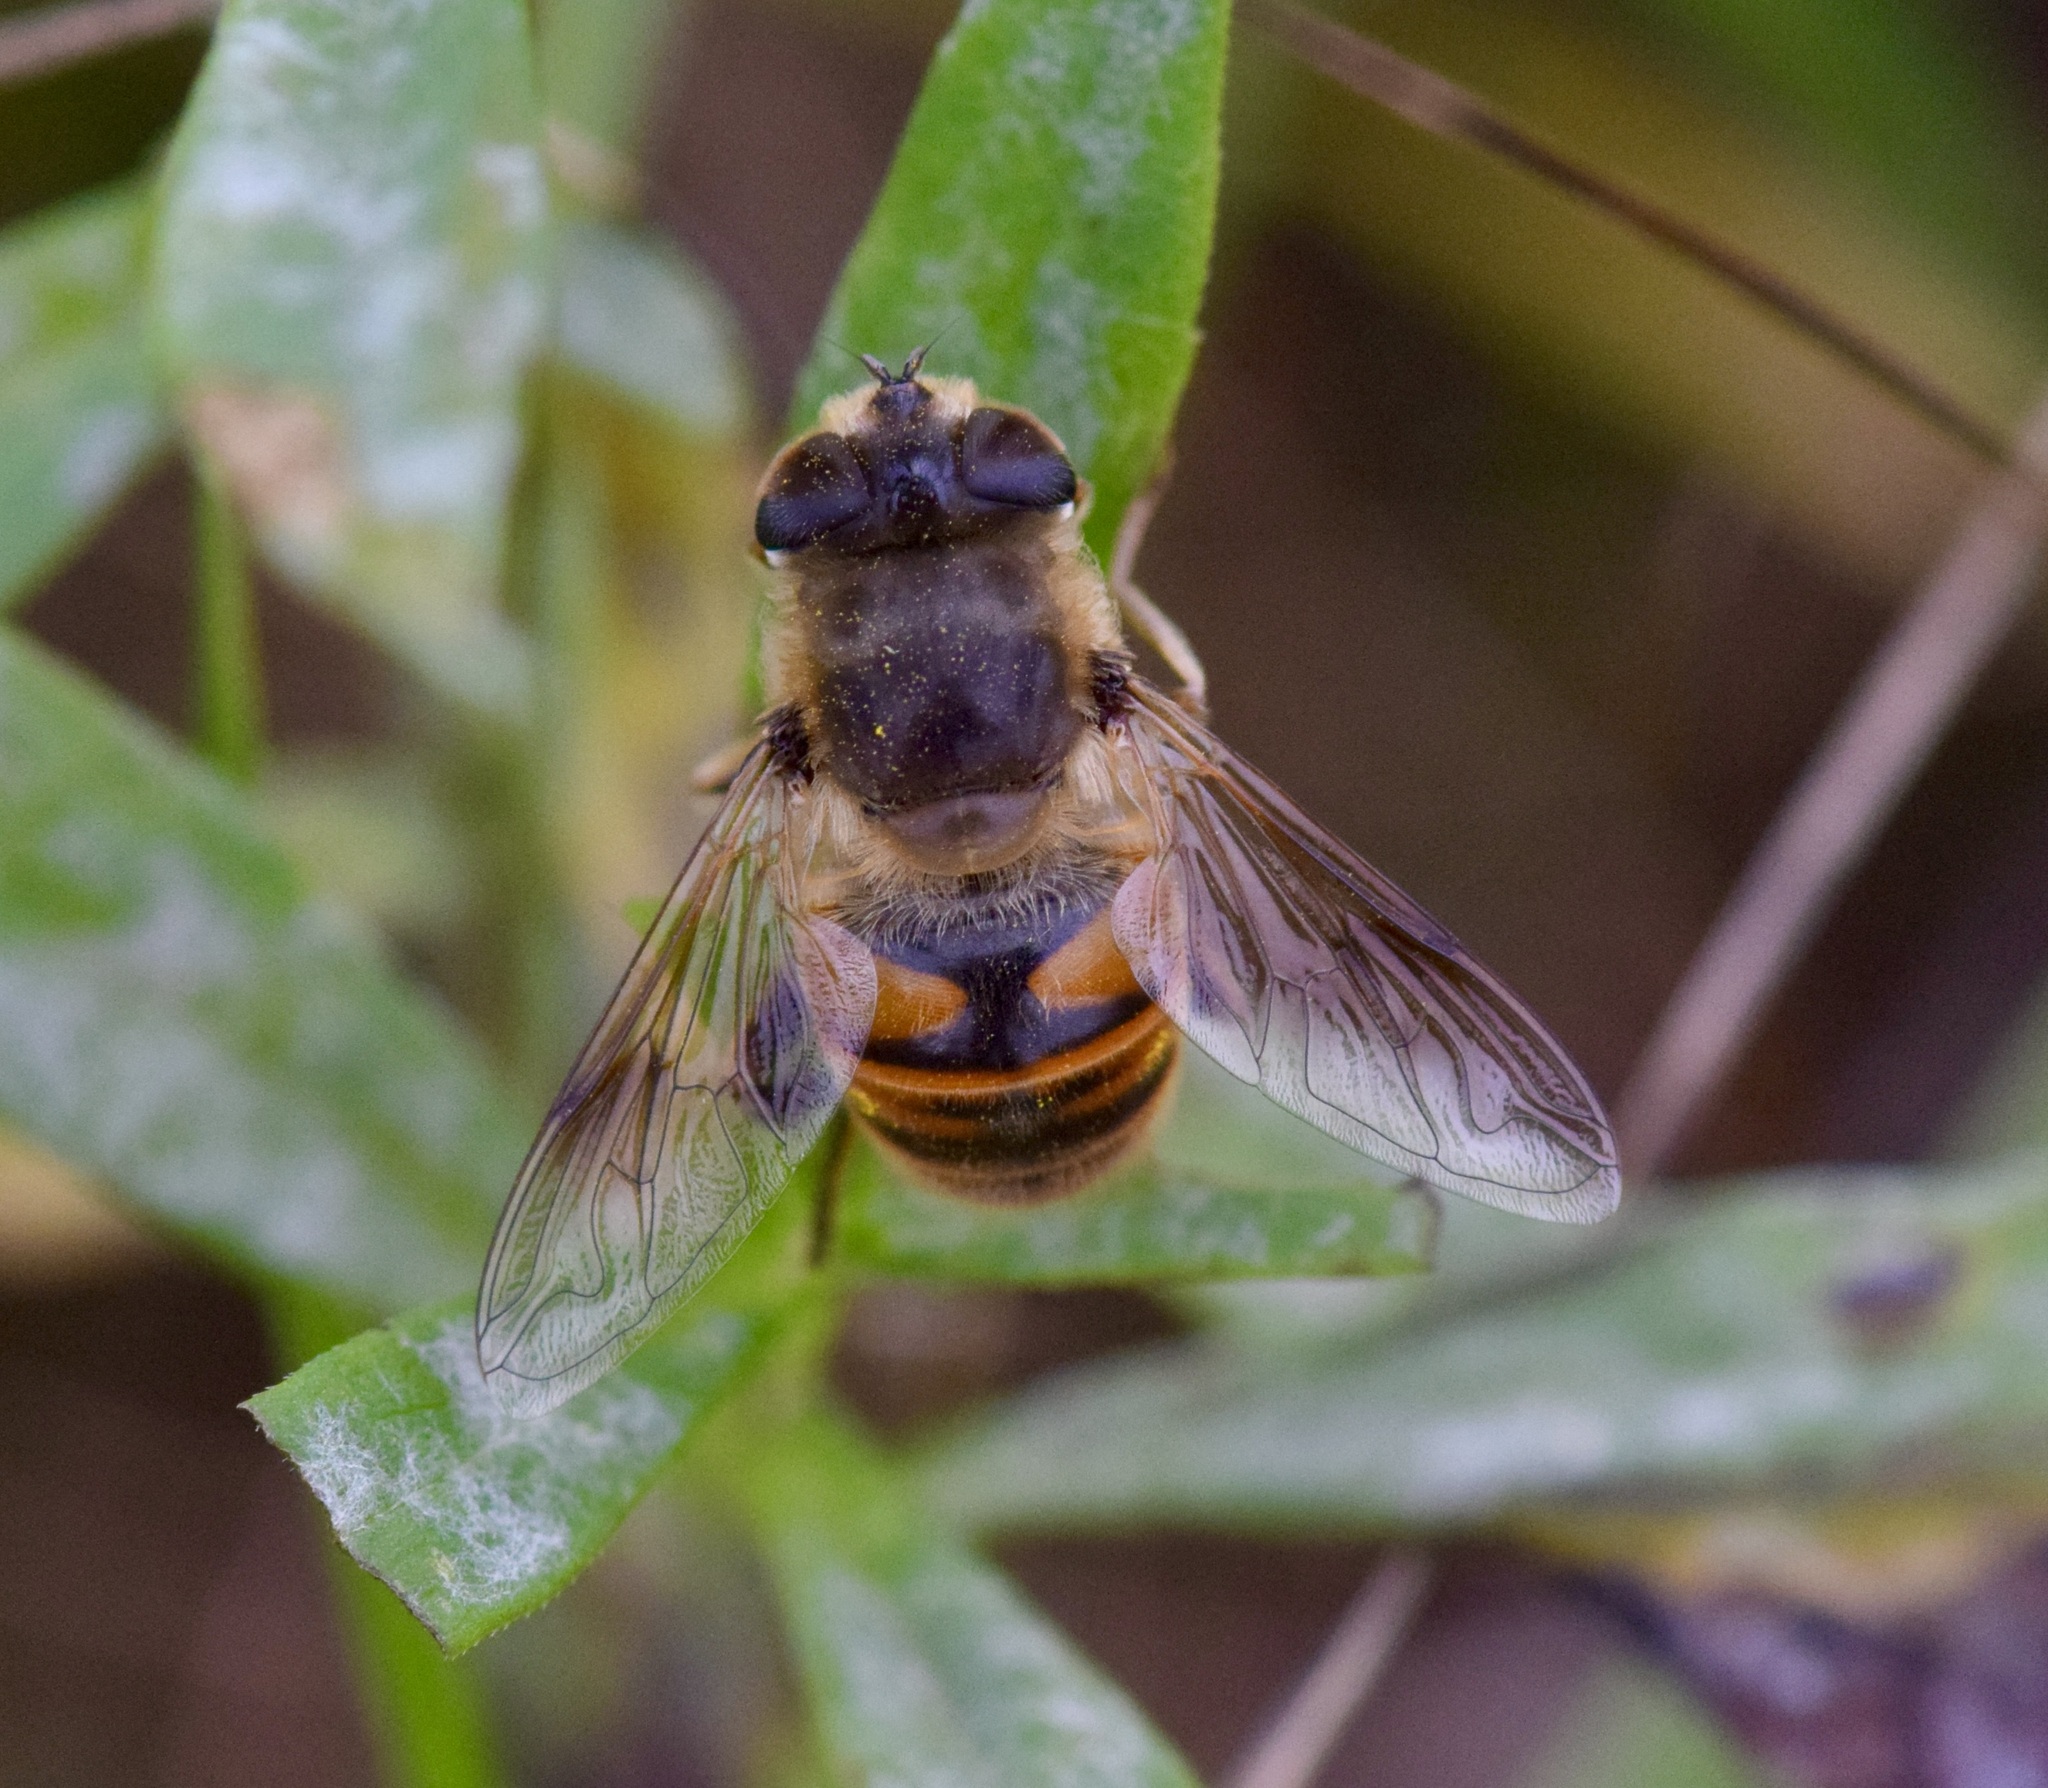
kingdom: Animalia
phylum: Arthropoda
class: Insecta
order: Diptera
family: Syrphidae
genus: Eristalis
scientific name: Eristalis tenax
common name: Drone fly
